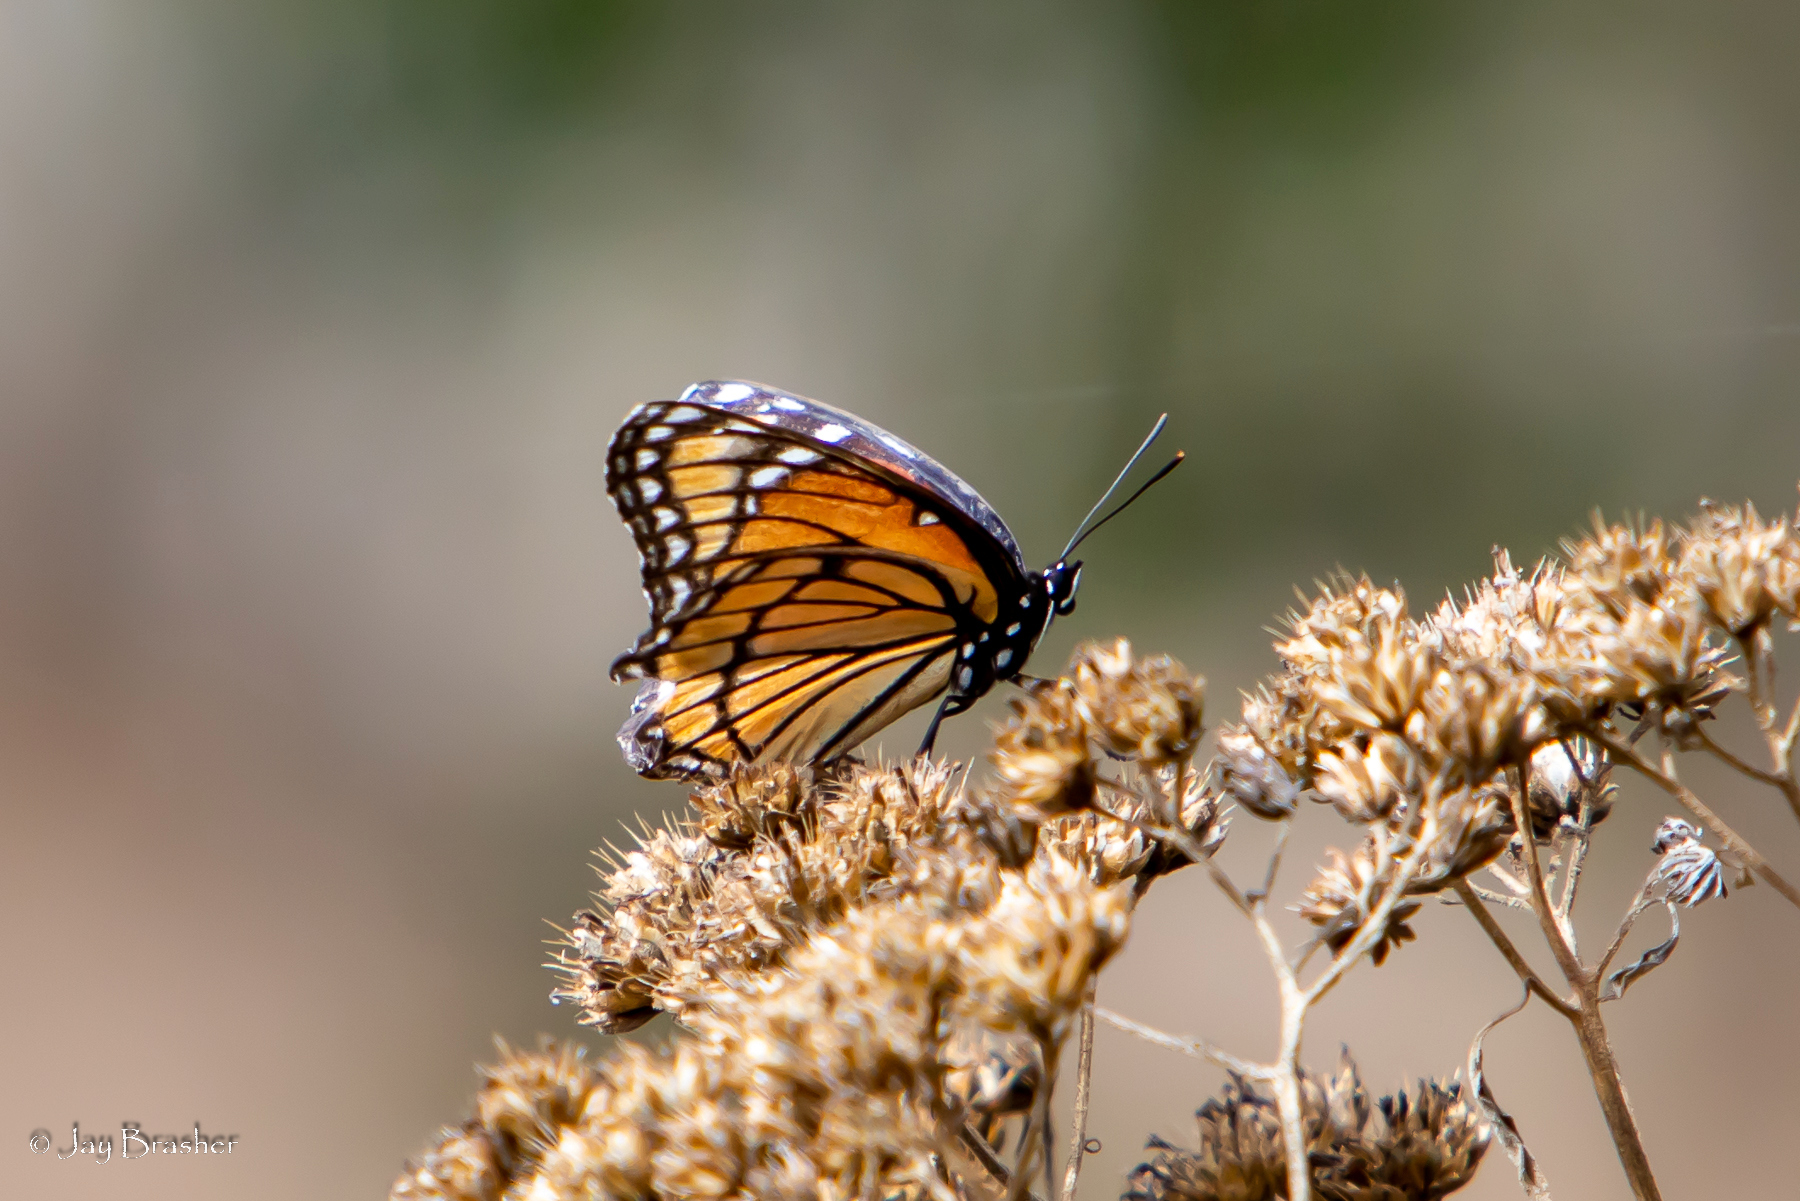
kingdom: Animalia
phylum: Arthropoda
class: Insecta
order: Lepidoptera
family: Nymphalidae
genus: Limenitis
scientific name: Limenitis archippus
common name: Viceroy
